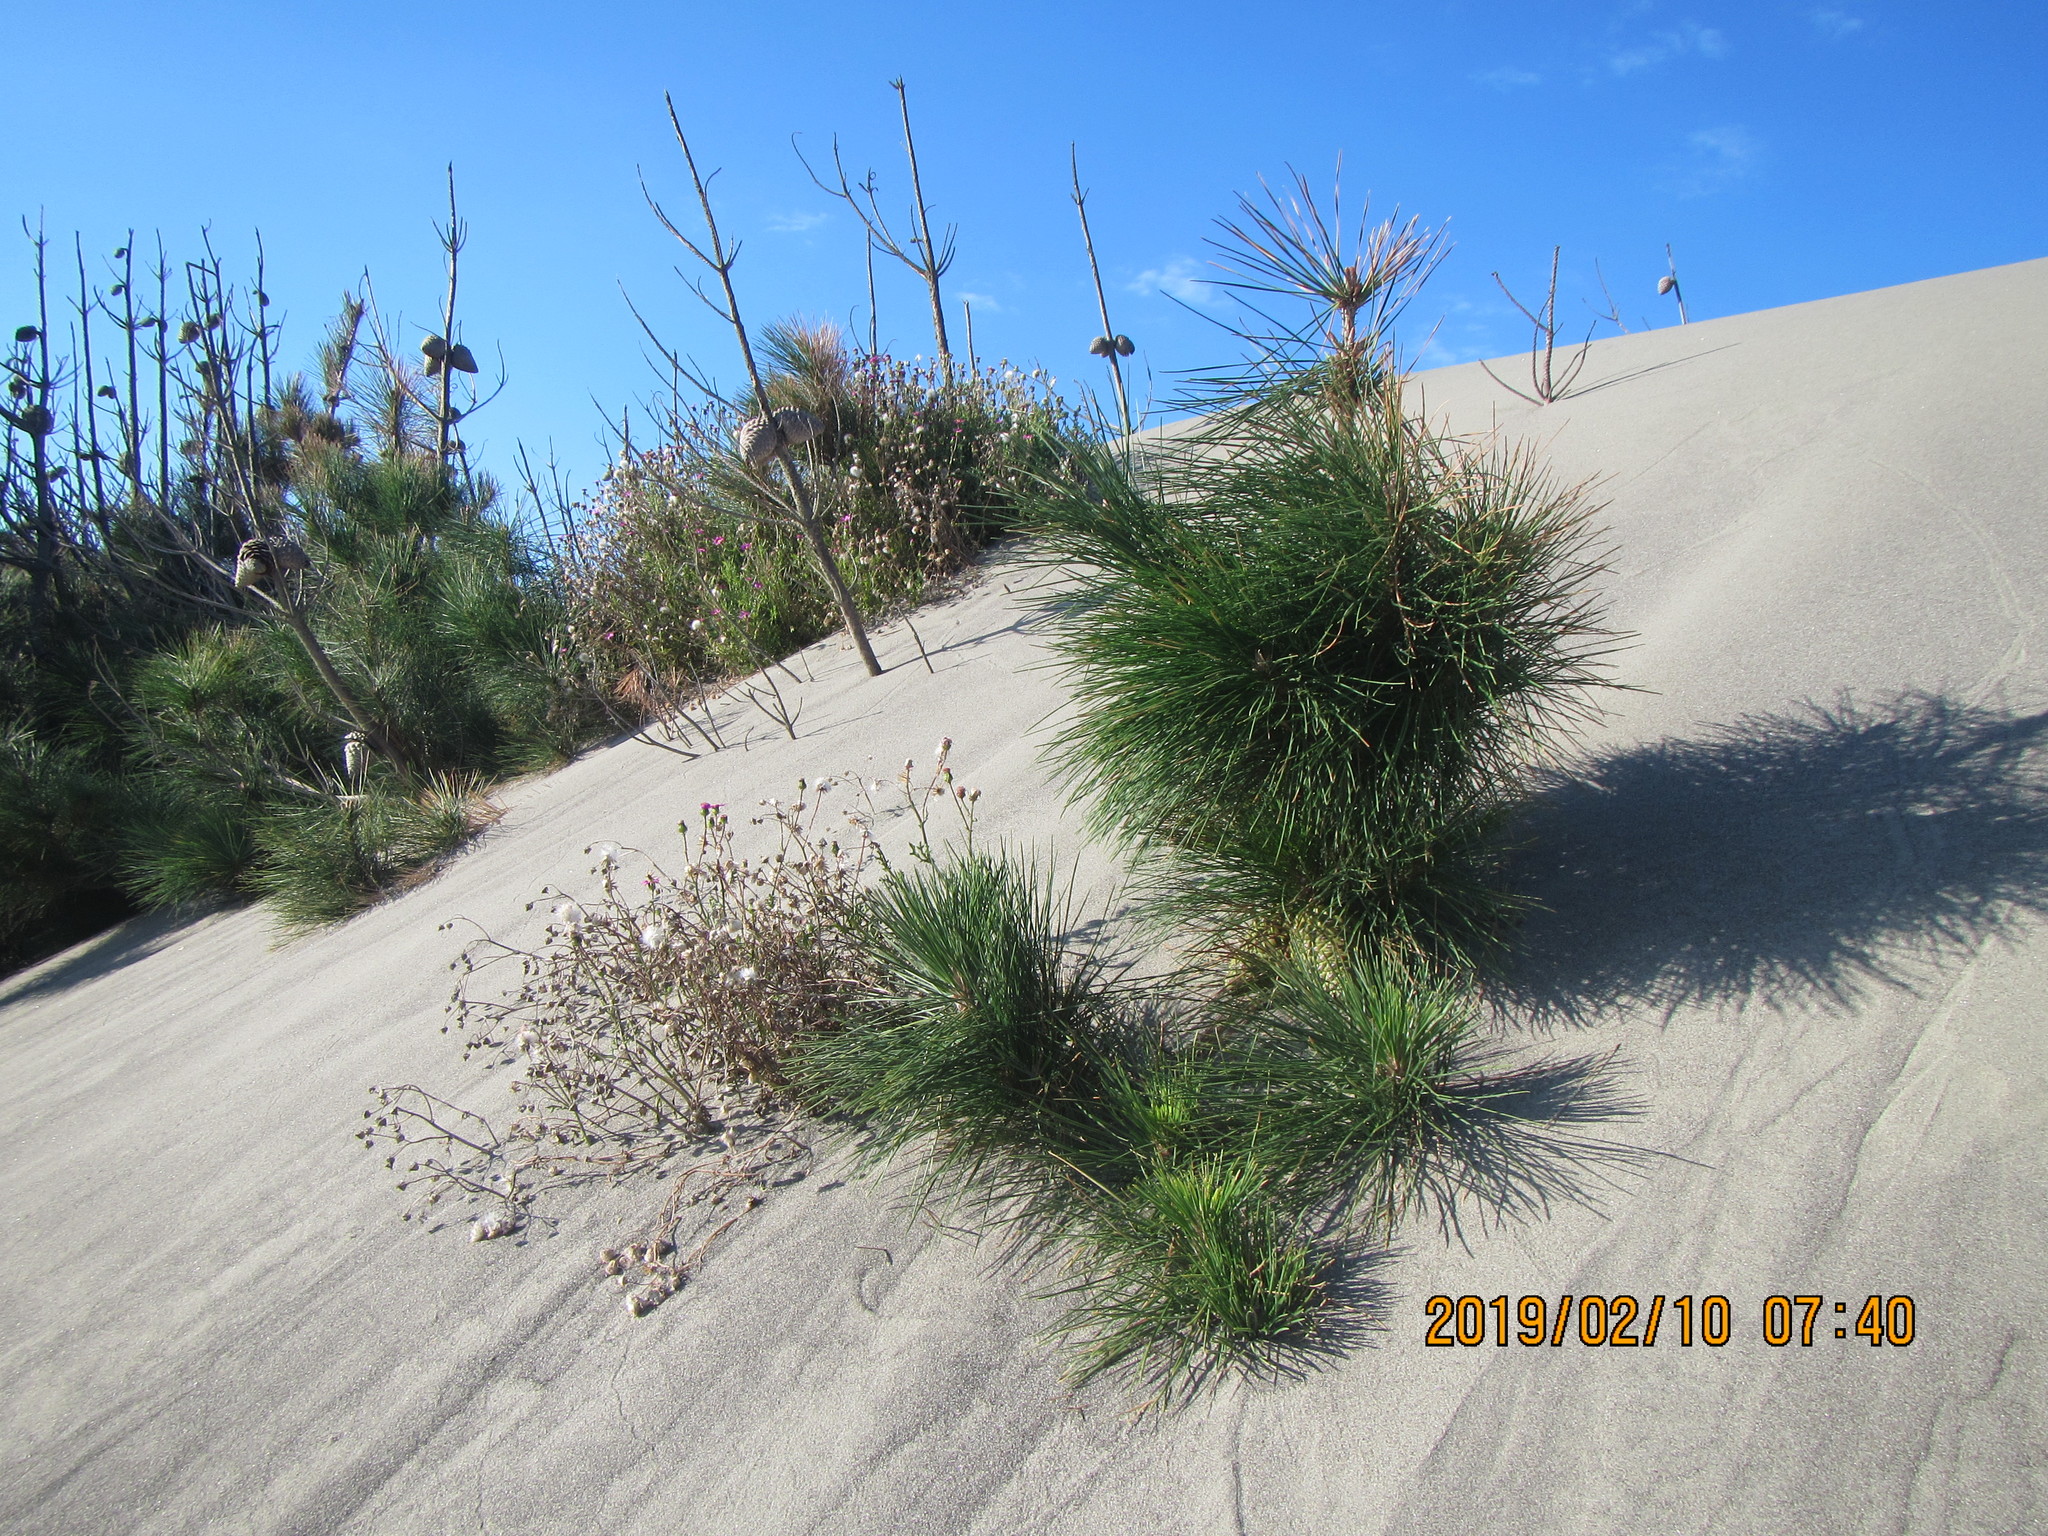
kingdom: Plantae
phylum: Tracheophyta
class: Pinopsida
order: Pinales
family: Pinaceae
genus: Pinus
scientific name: Pinus radiata
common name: Monterey pine
